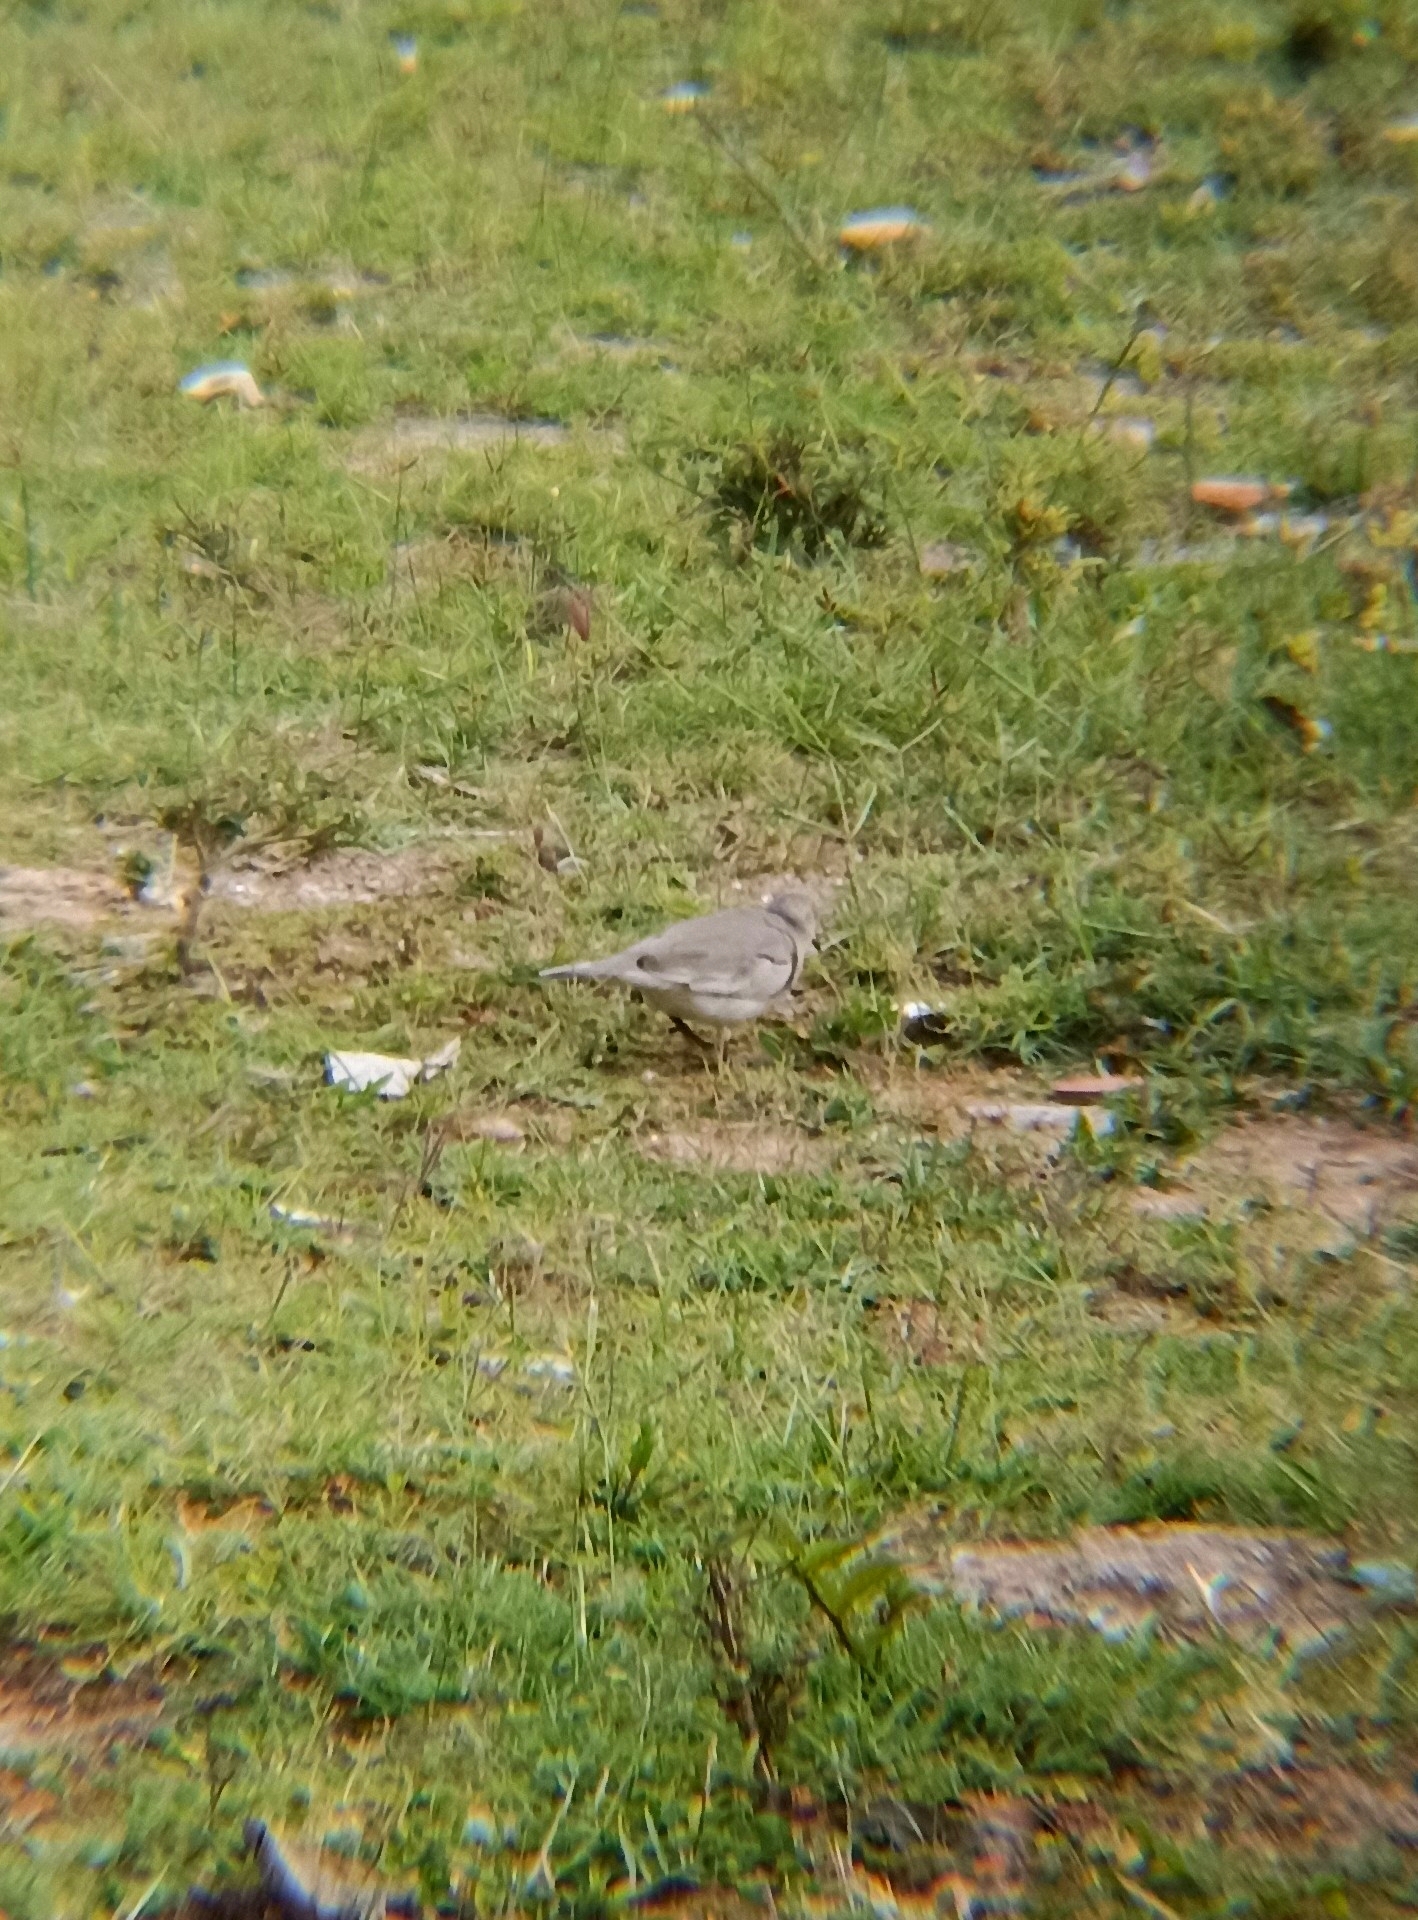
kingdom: Animalia
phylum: Chordata
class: Aves
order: Columbiformes
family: Columbidae
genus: Columbina
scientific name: Columbina picui
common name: Picui ground dove
